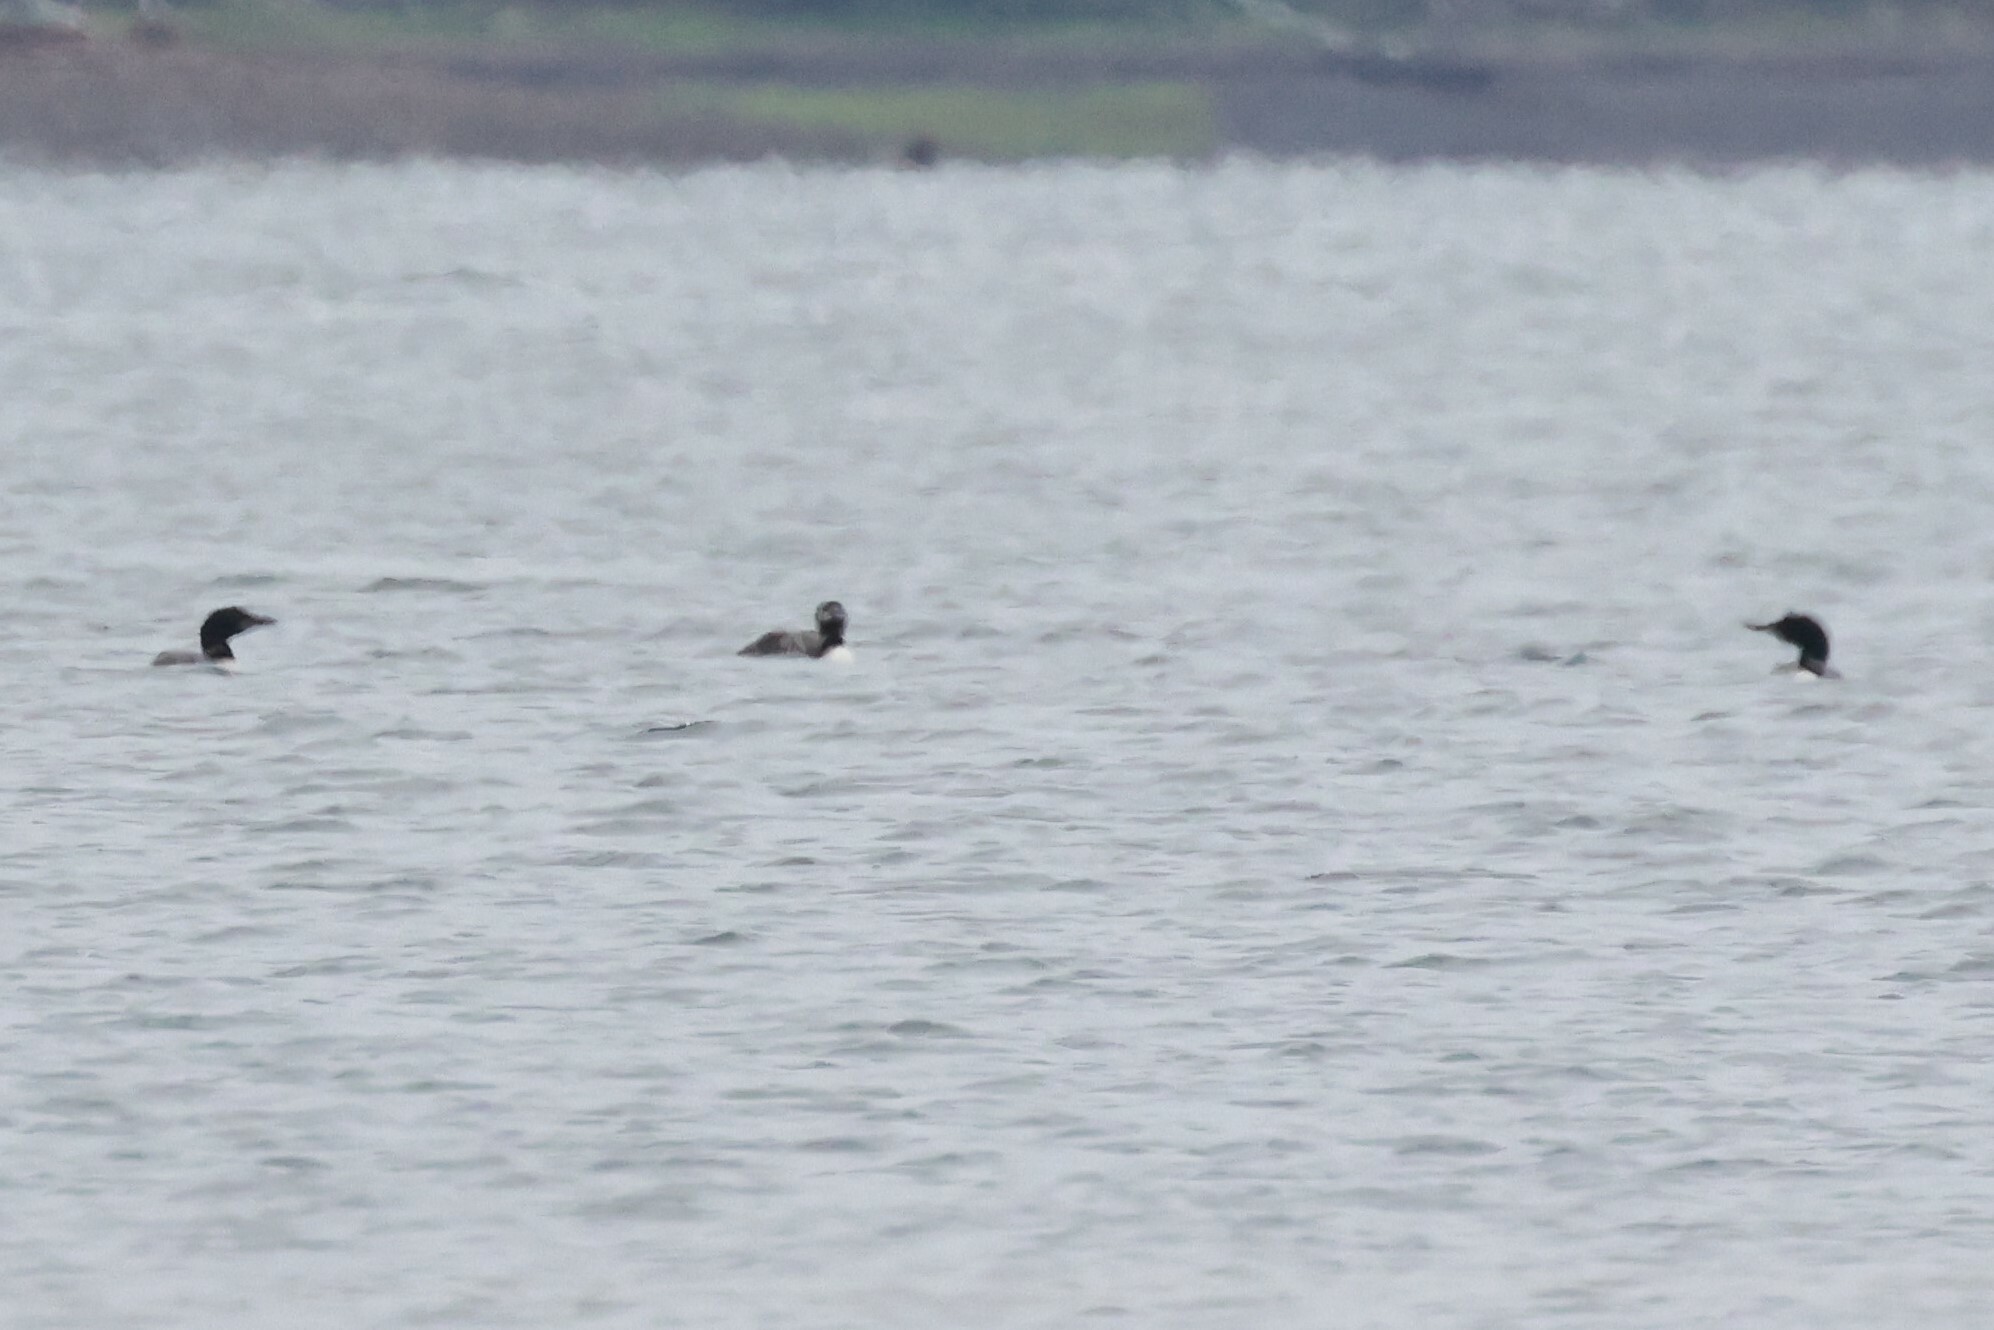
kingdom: Animalia
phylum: Chordata
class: Aves
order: Gaviiformes
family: Gaviidae
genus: Gavia
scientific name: Gavia immer
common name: Common loon
